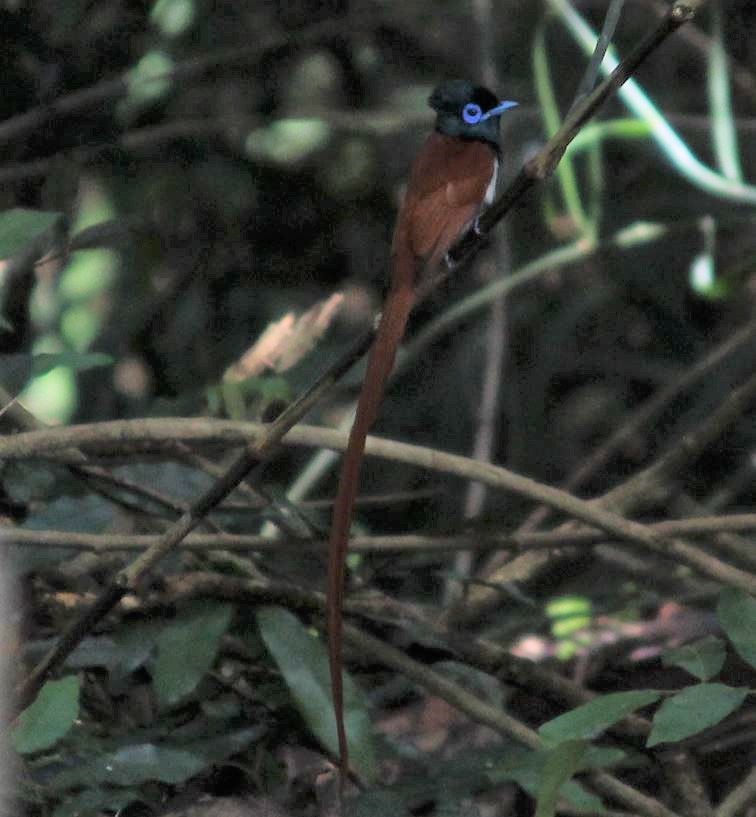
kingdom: Animalia
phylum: Chordata
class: Aves
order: Passeriformes
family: Monarchidae
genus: Terpsiphone
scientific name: Terpsiphone viridis
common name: African paradise flycatcher
